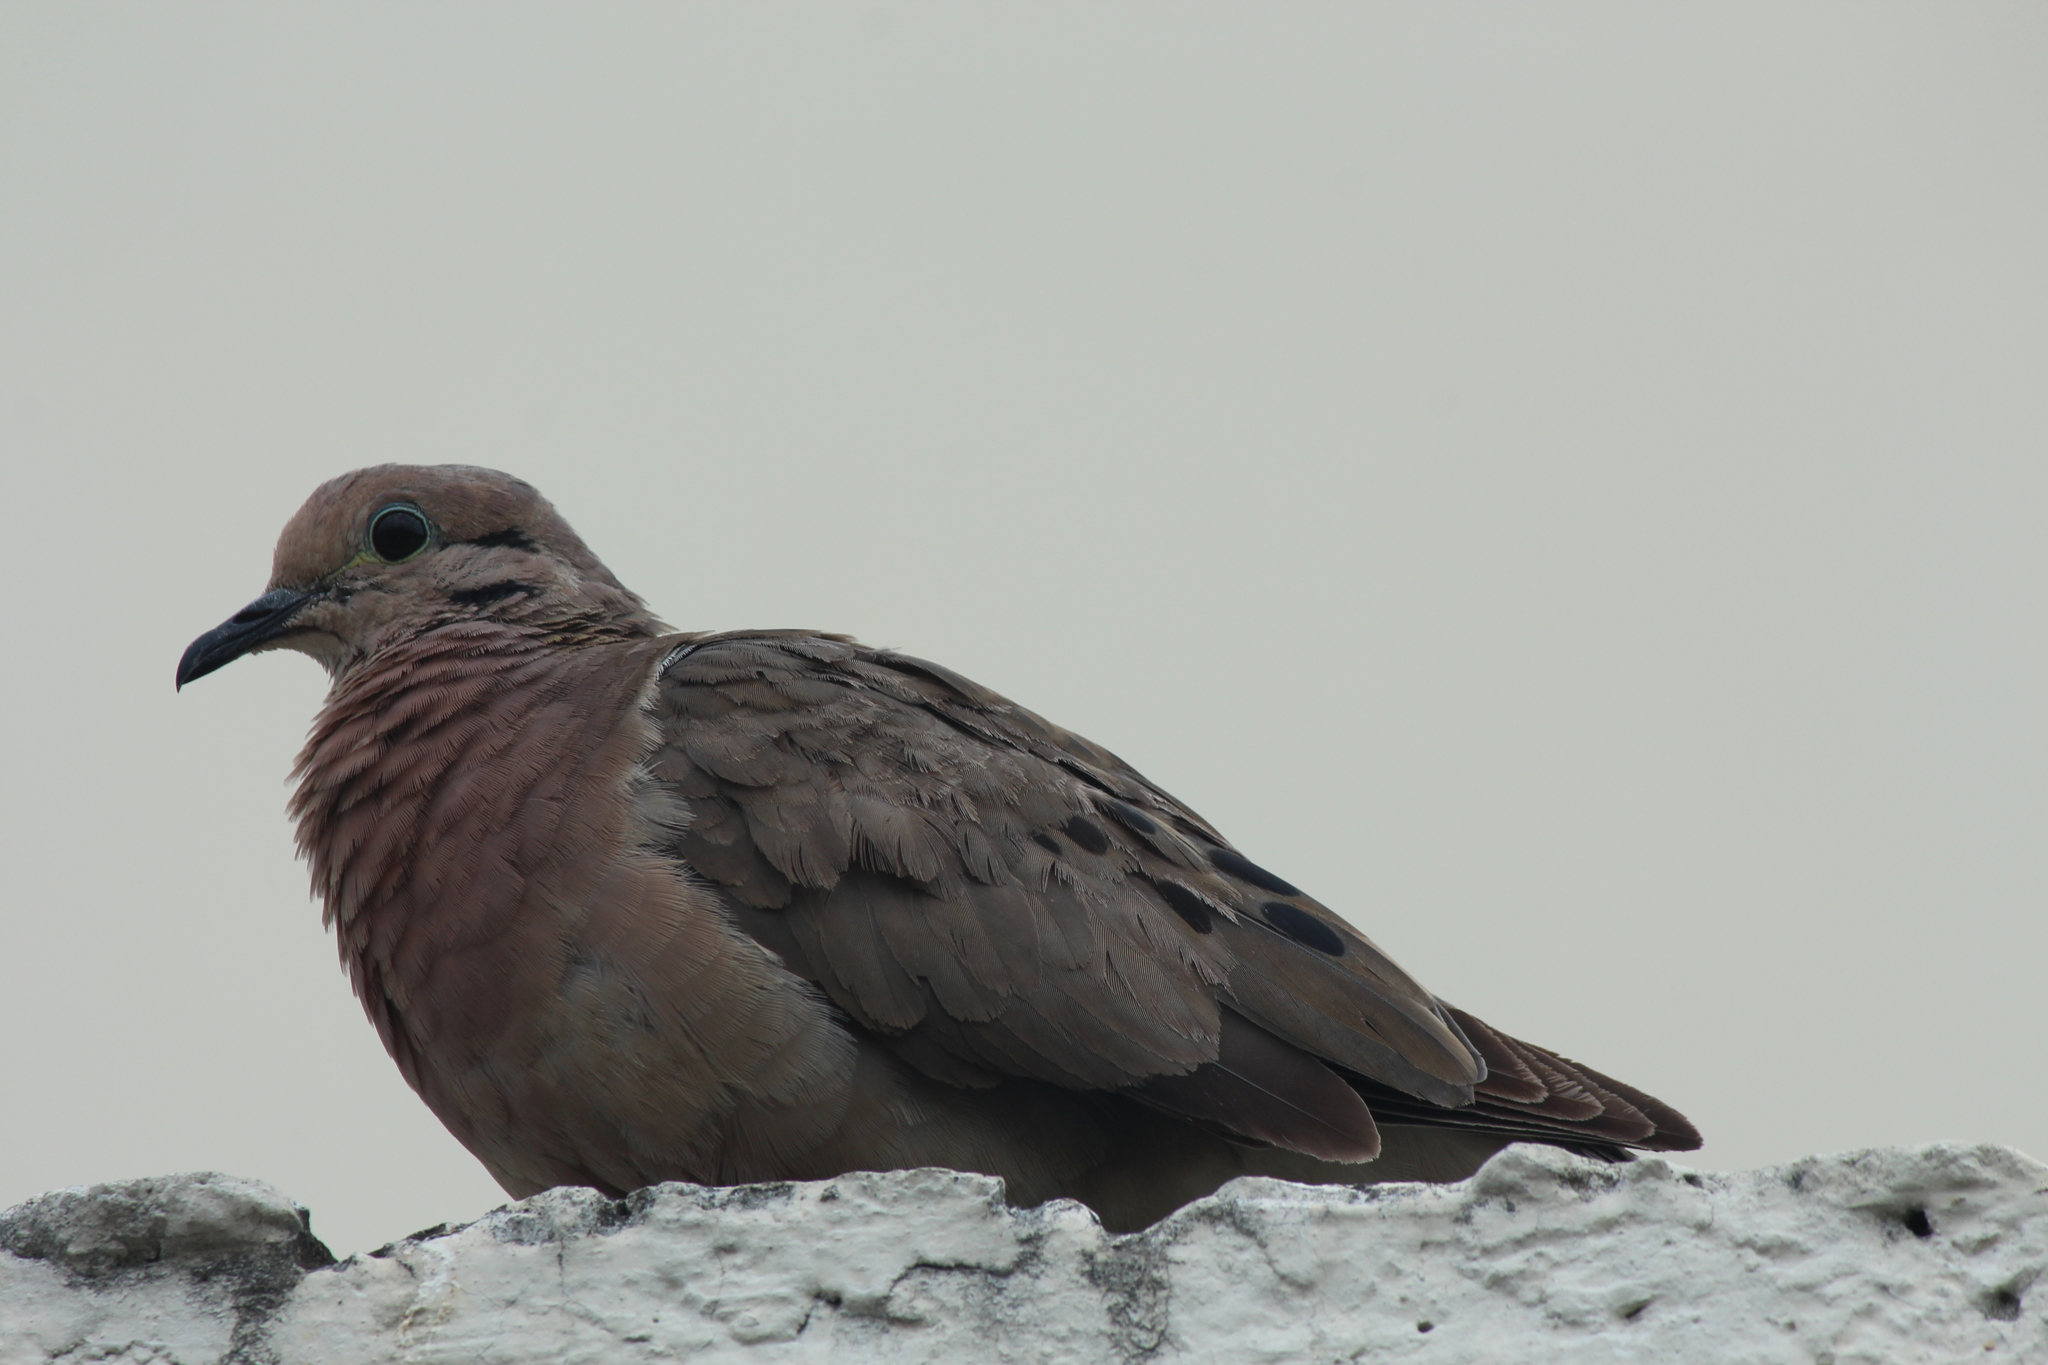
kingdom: Animalia
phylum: Chordata
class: Aves
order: Columbiformes
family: Columbidae
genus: Zenaida
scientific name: Zenaida auriculata
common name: Eared dove
